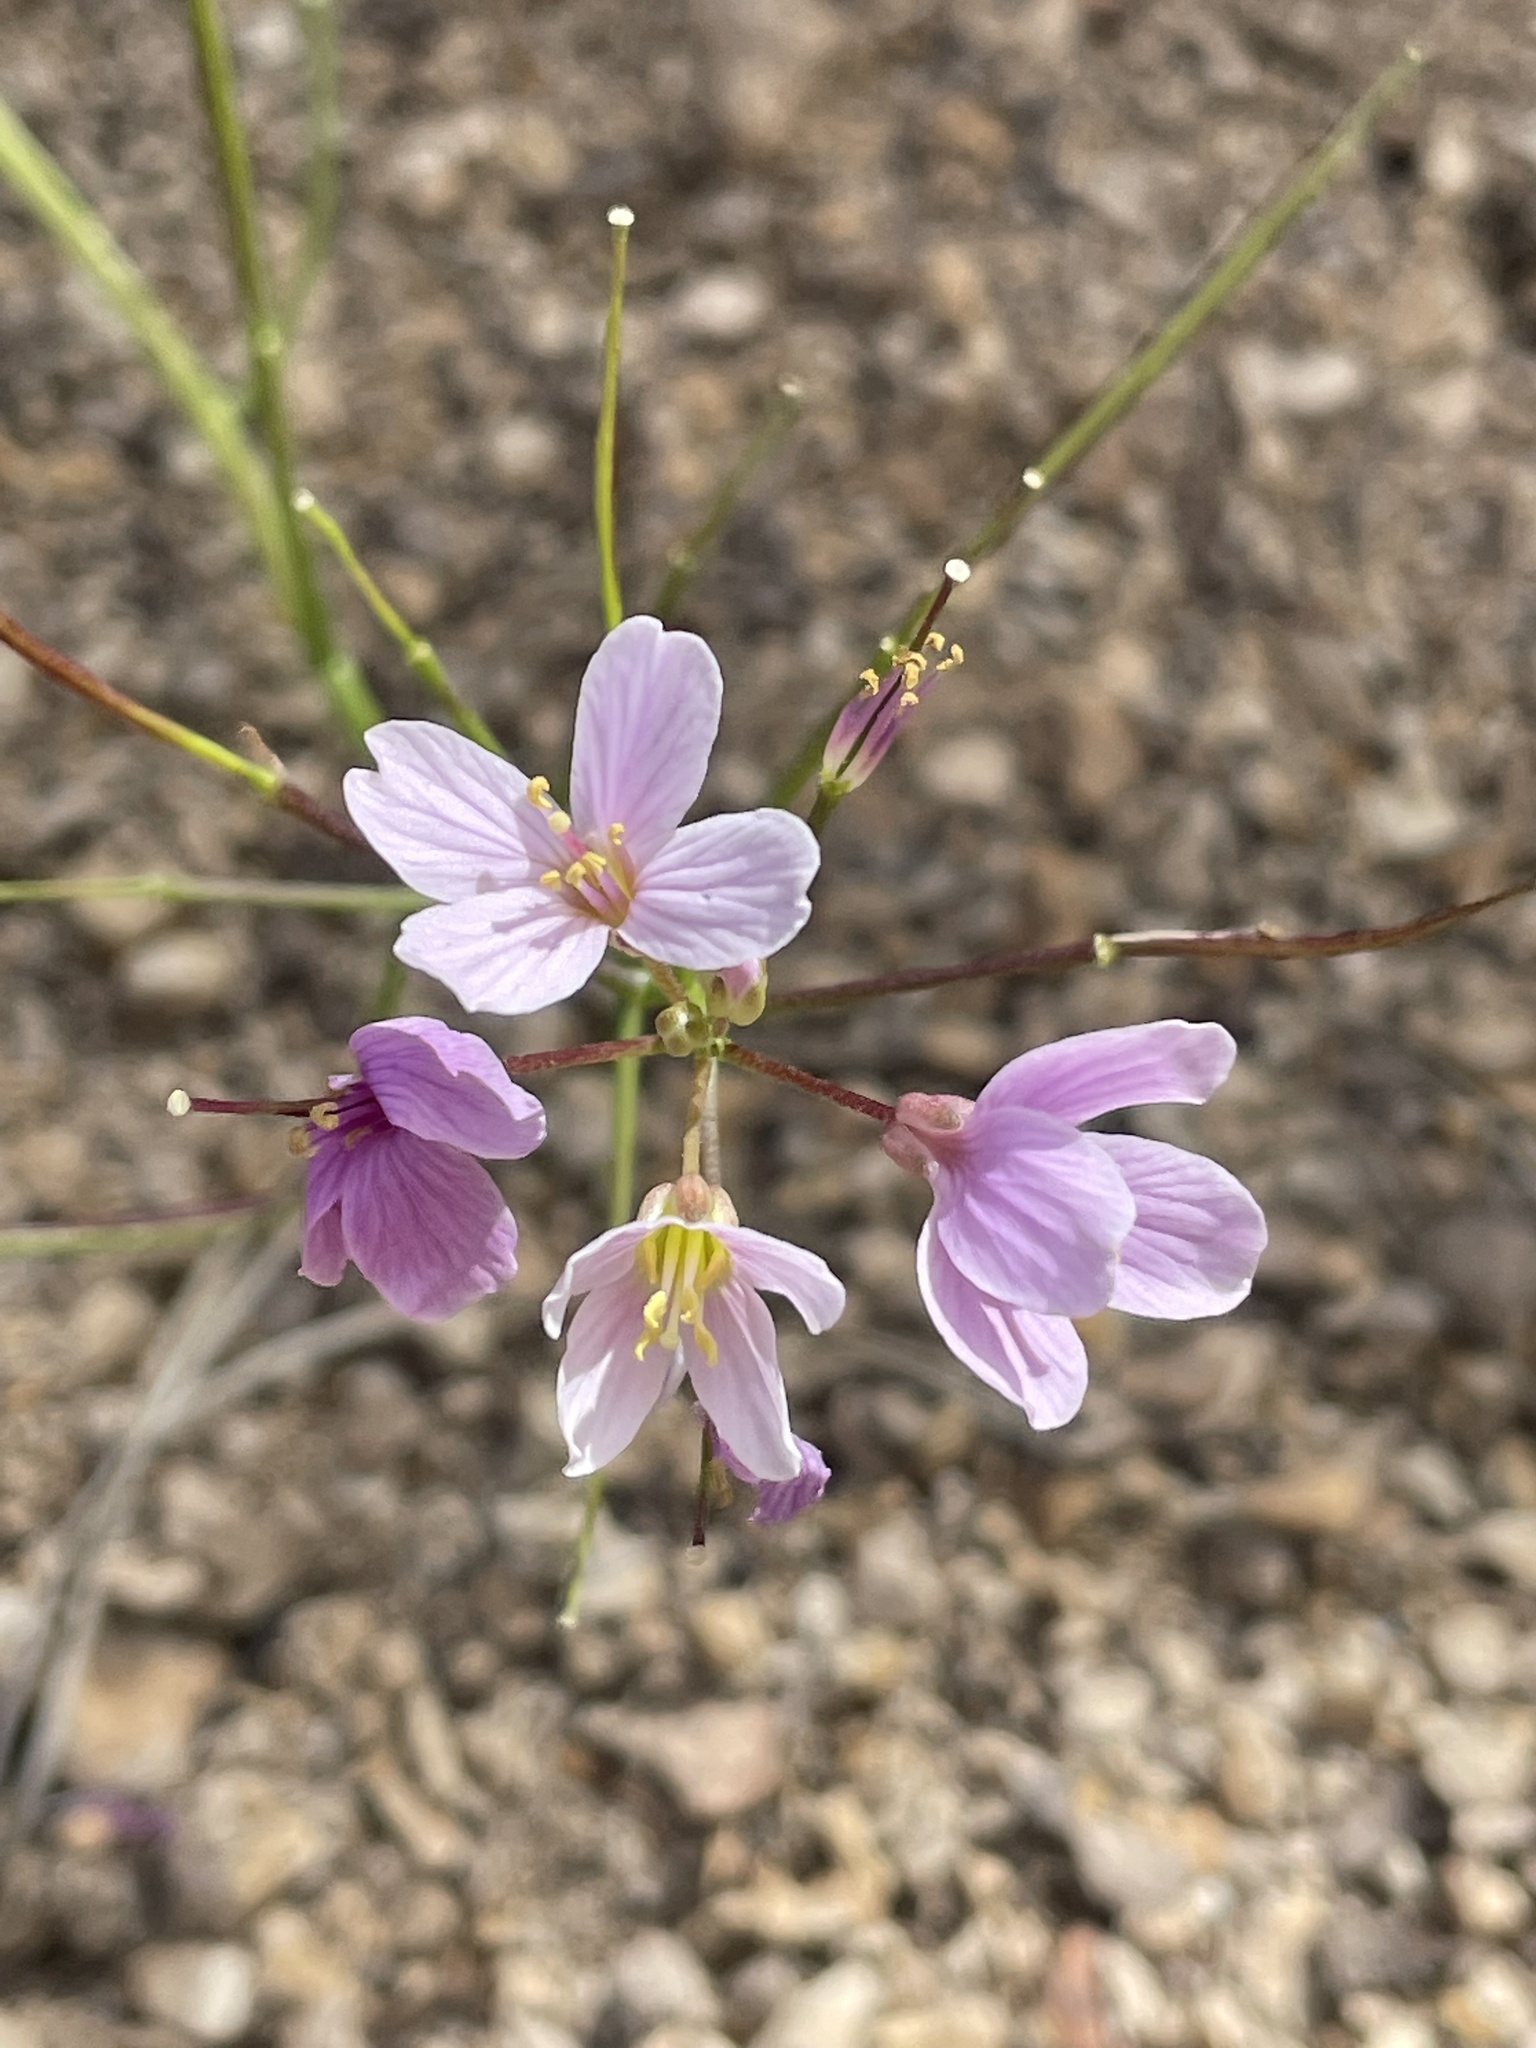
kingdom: Plantae
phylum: Tracheophyta
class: Magnoliopsida
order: Brassicales
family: Brassicaceae
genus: Cardamine
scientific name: Cardamine californica
